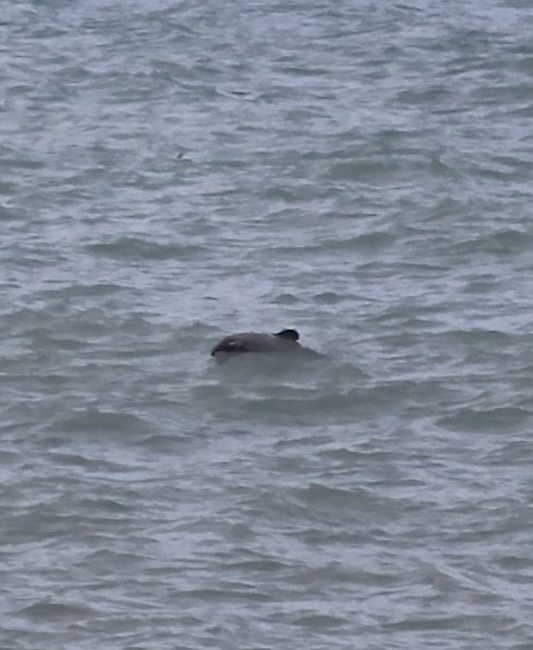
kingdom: Animalia
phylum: Chordata
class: Mammalia
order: Cetacea
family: Delphinidae
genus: Cephalorhynchus
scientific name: Cephalorhynchus hectori
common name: Hector's dolphin
